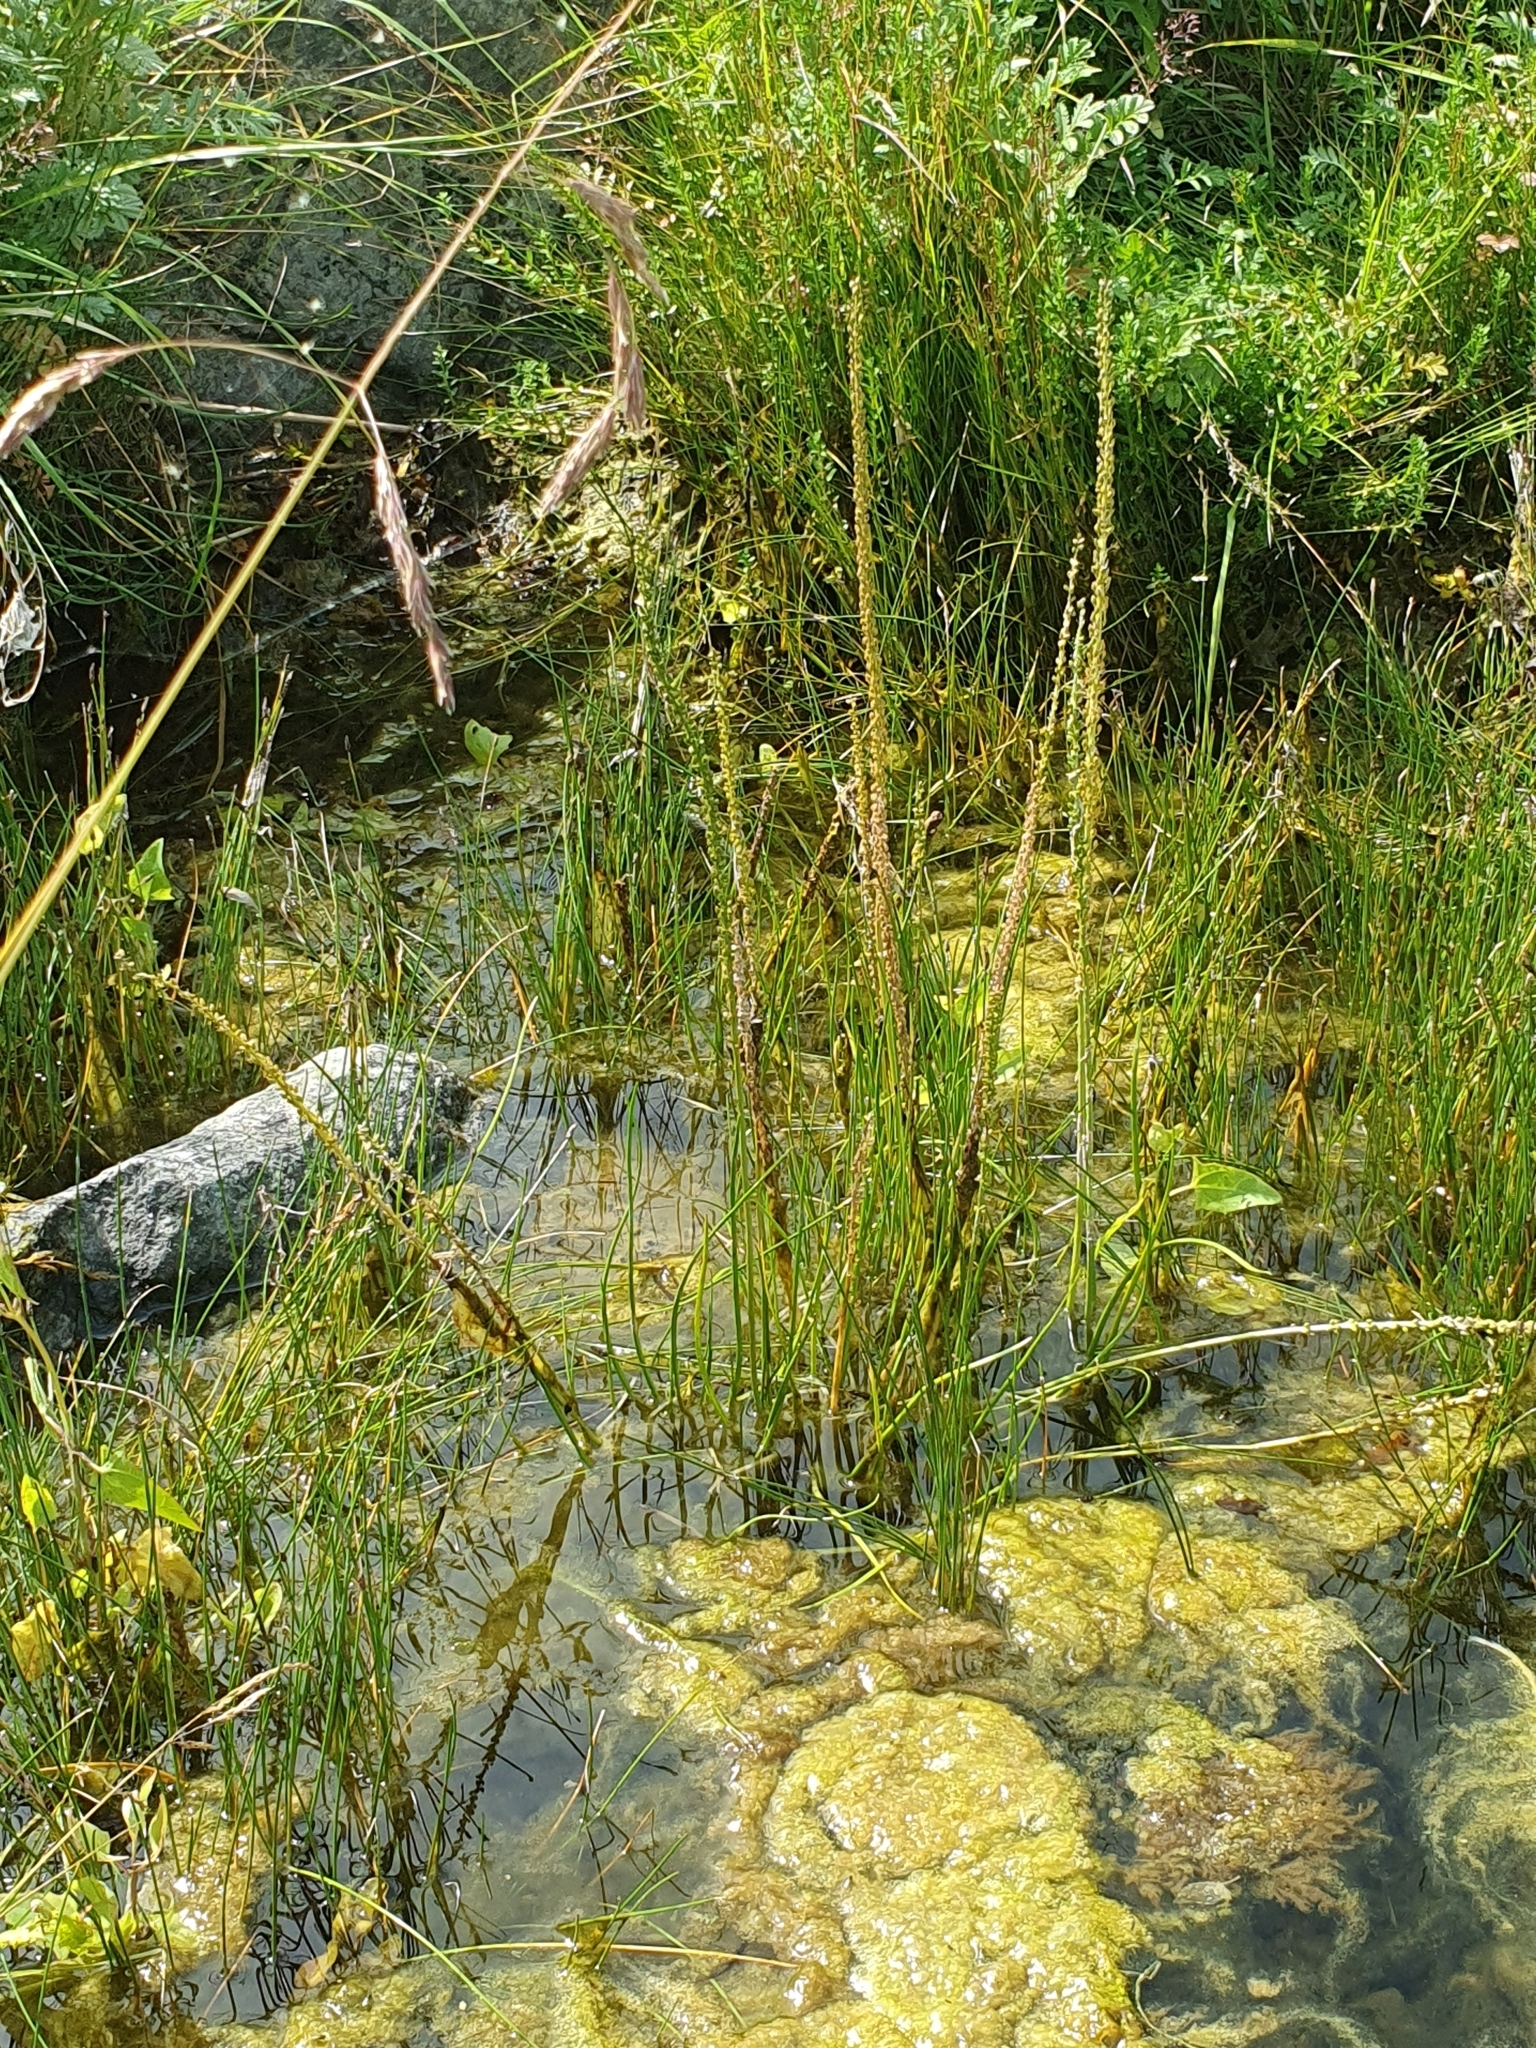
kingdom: Plantae
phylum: Tracheophyta
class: Liliopsida
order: Alismatales
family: Juncaginaceae
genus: Triglochin
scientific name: Triglochin maritima
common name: Sea arrowgrass
